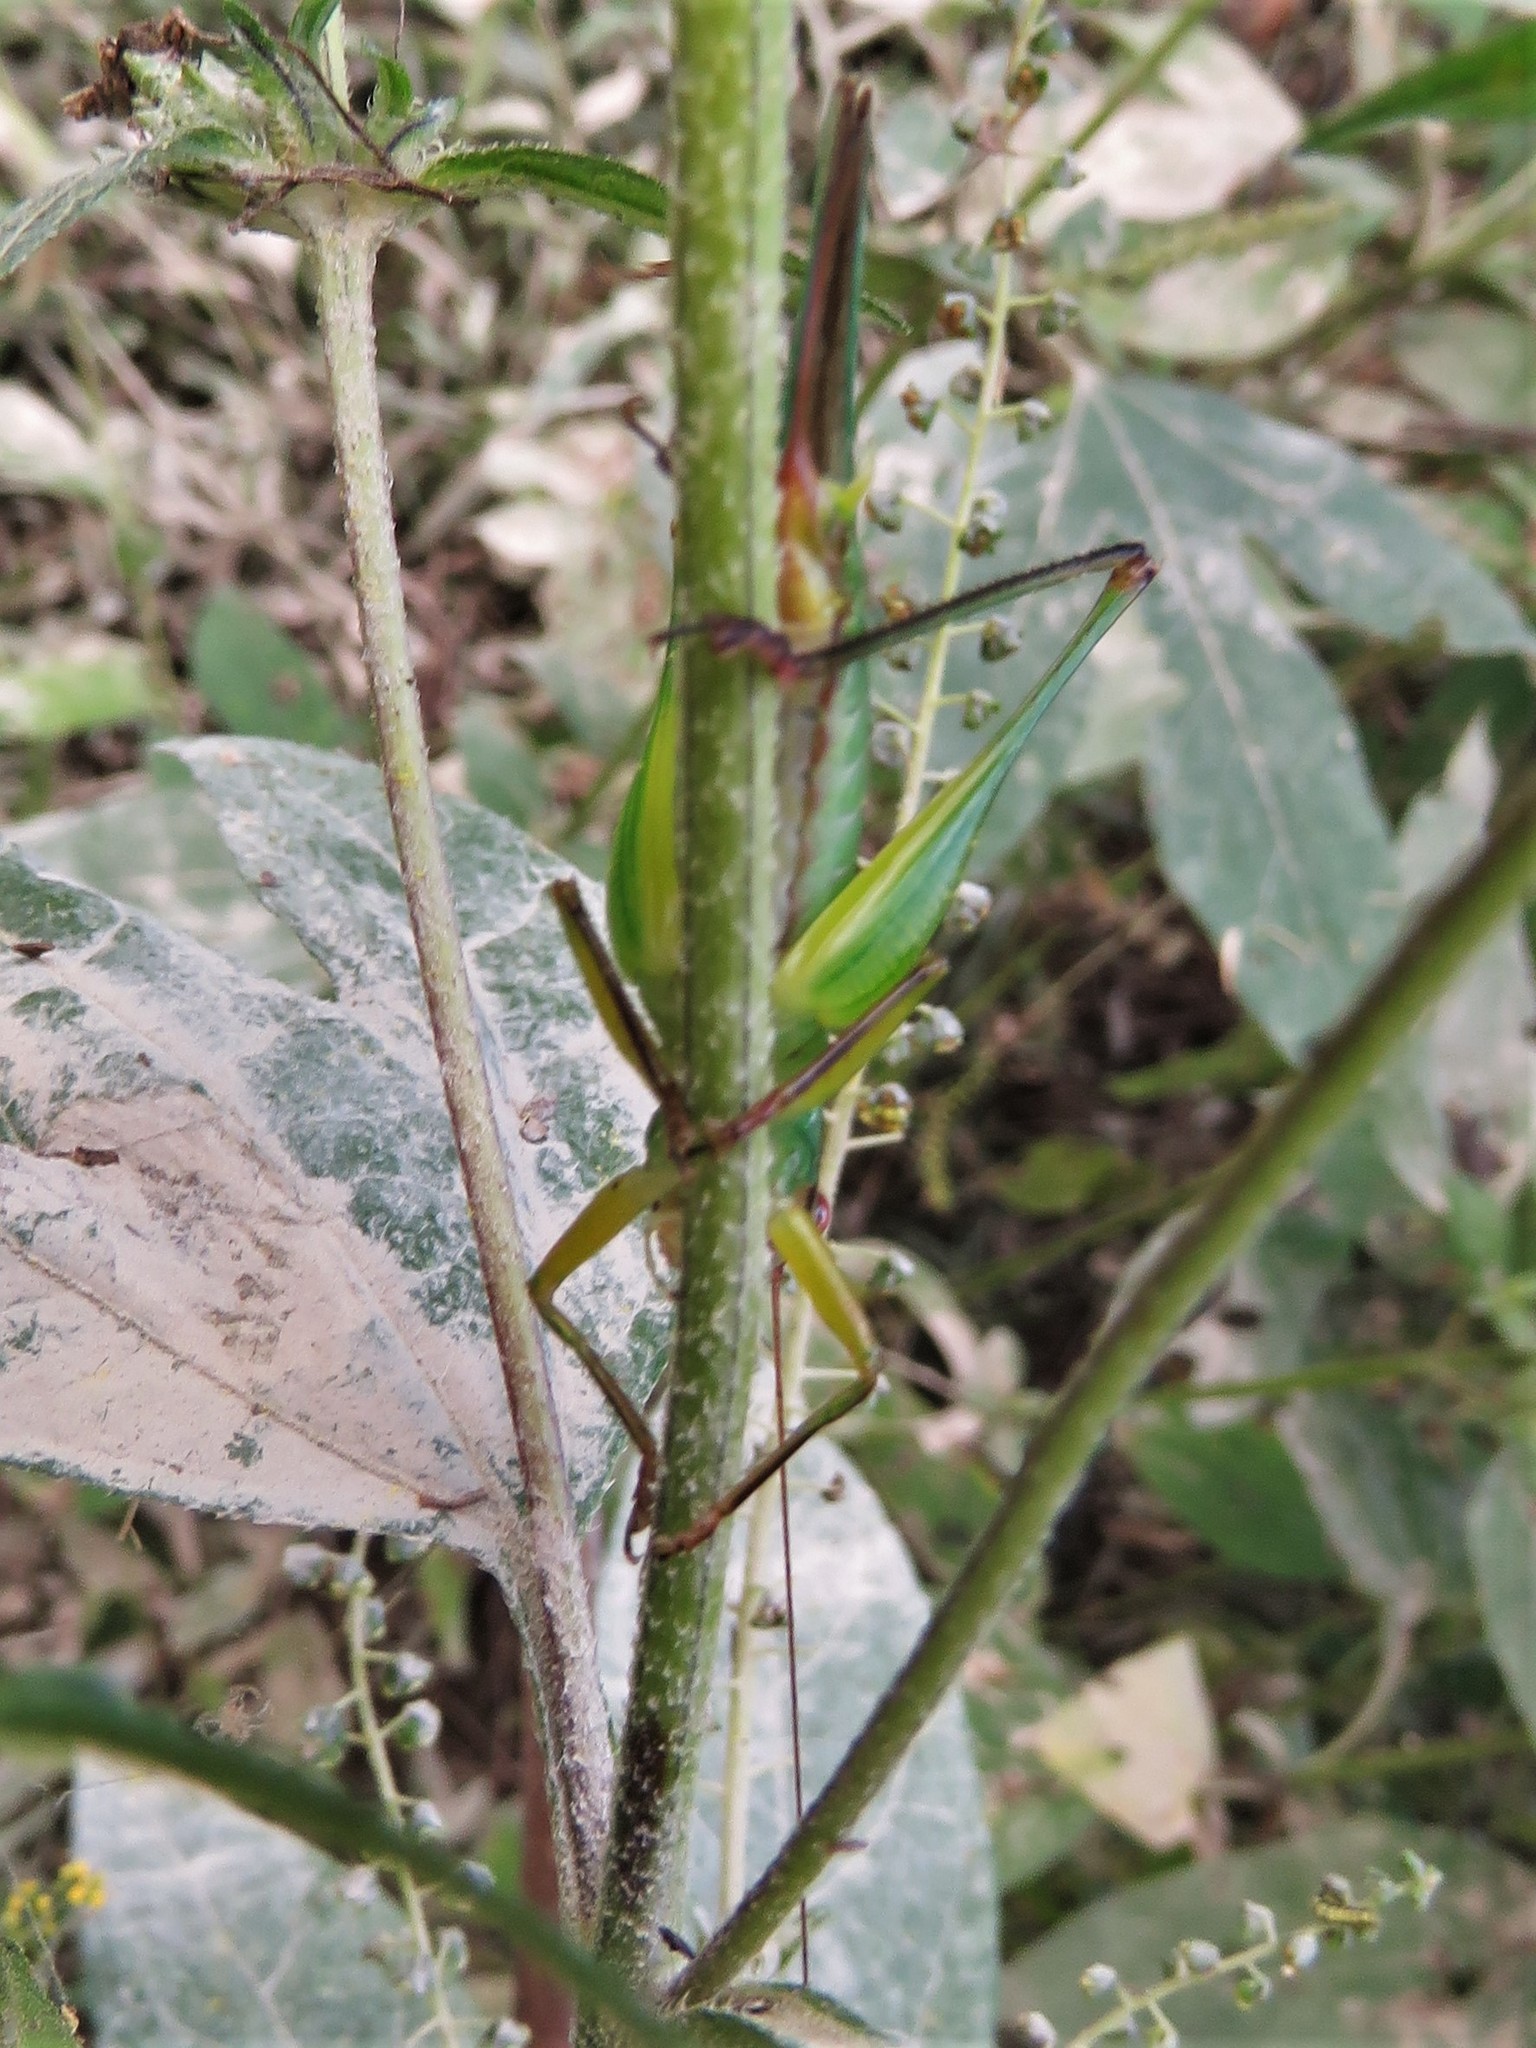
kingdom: Animalia
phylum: Arthropoda
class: Insecta
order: Orthoptera
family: Tettigoniidae
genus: Orchelimum
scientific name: Orchelimum nigripes
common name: Black-legged meadow katydid
